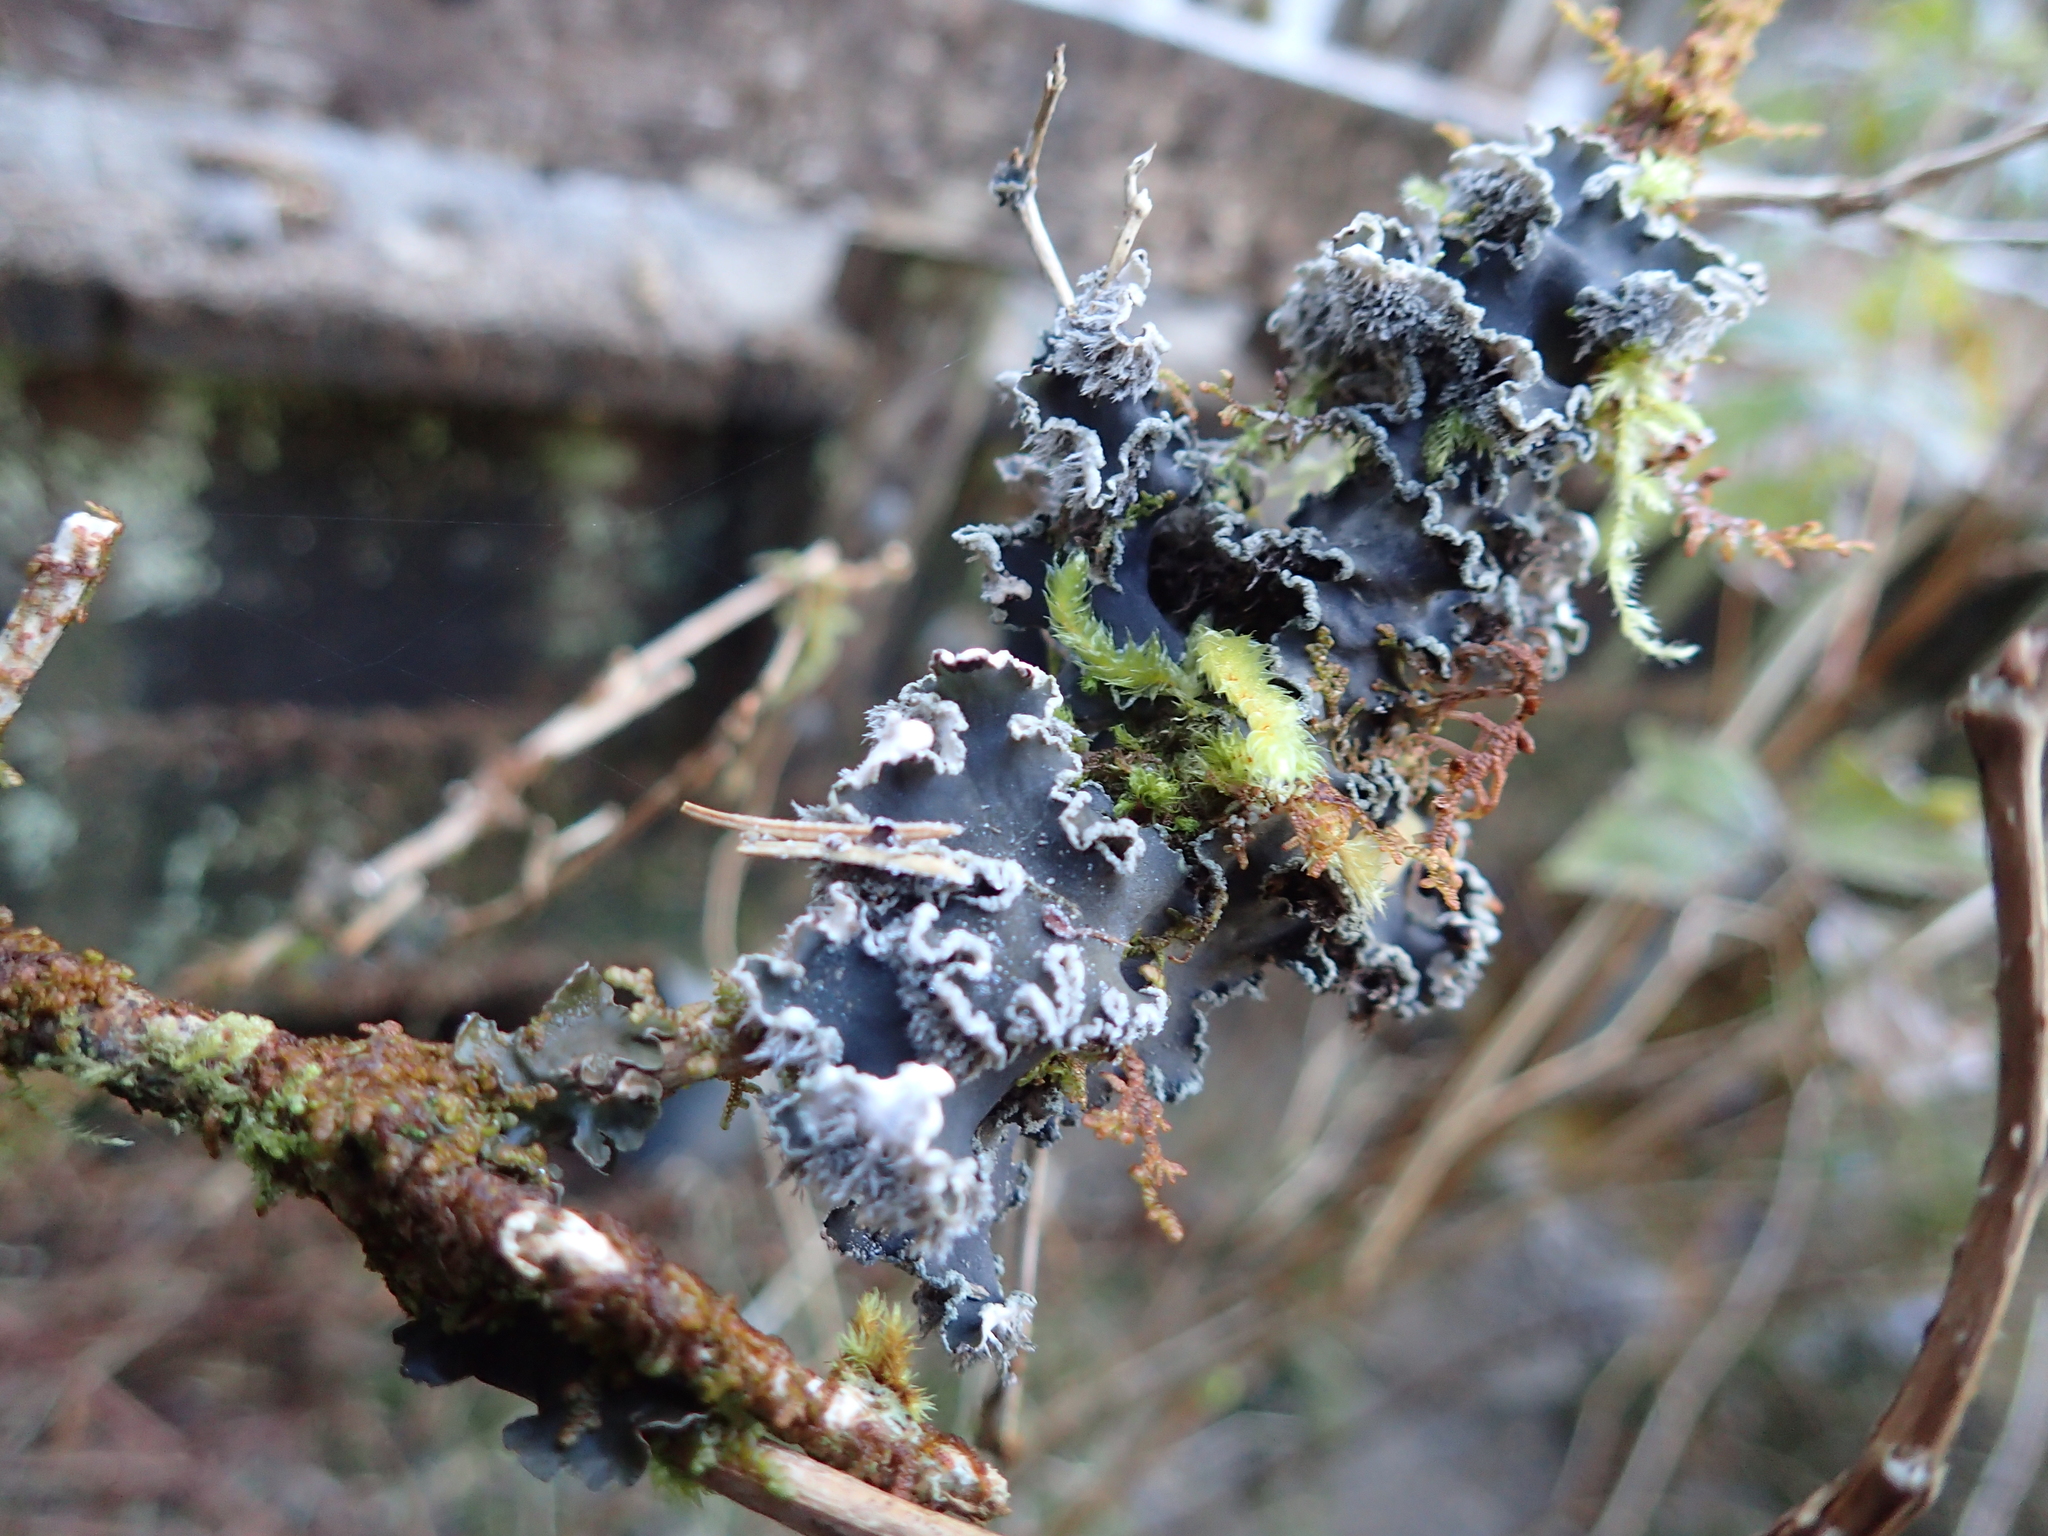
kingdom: Fungi
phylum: Ascomycota
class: Lecanoromycetes
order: Peltigerales
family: Peltigeraceae
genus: Peltigera
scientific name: Peltigera collina
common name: Gritty tree pelt lichen
